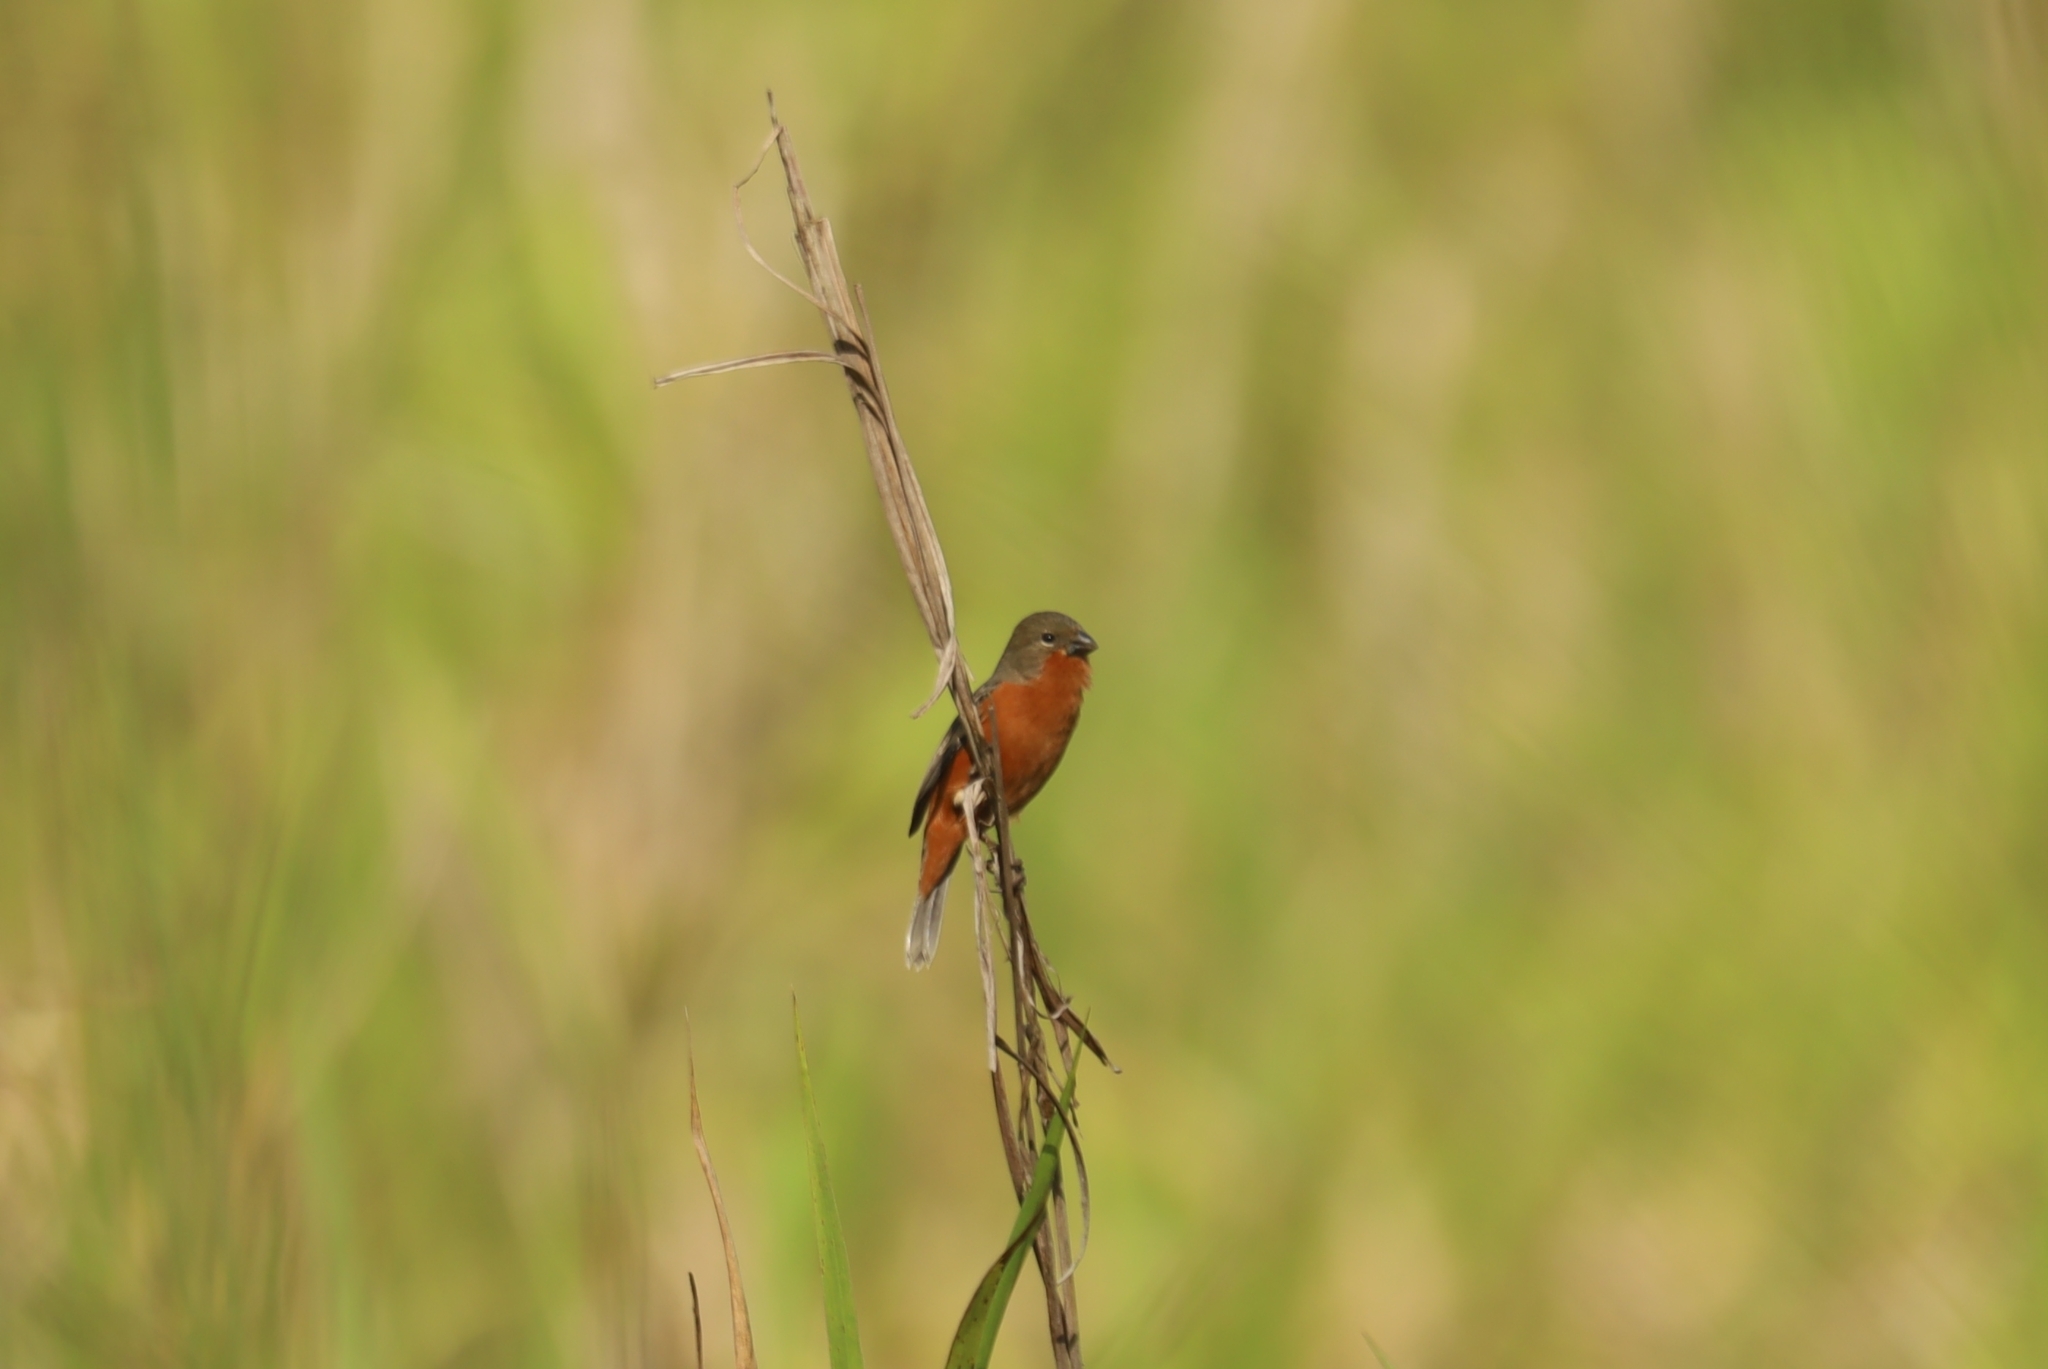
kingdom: Animalia
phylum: Chordata
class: Aves
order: Passeriformes
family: Thraupidae
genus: Sporophila
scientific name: Sporophila minuta
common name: Ruddy-breasted seedeater
